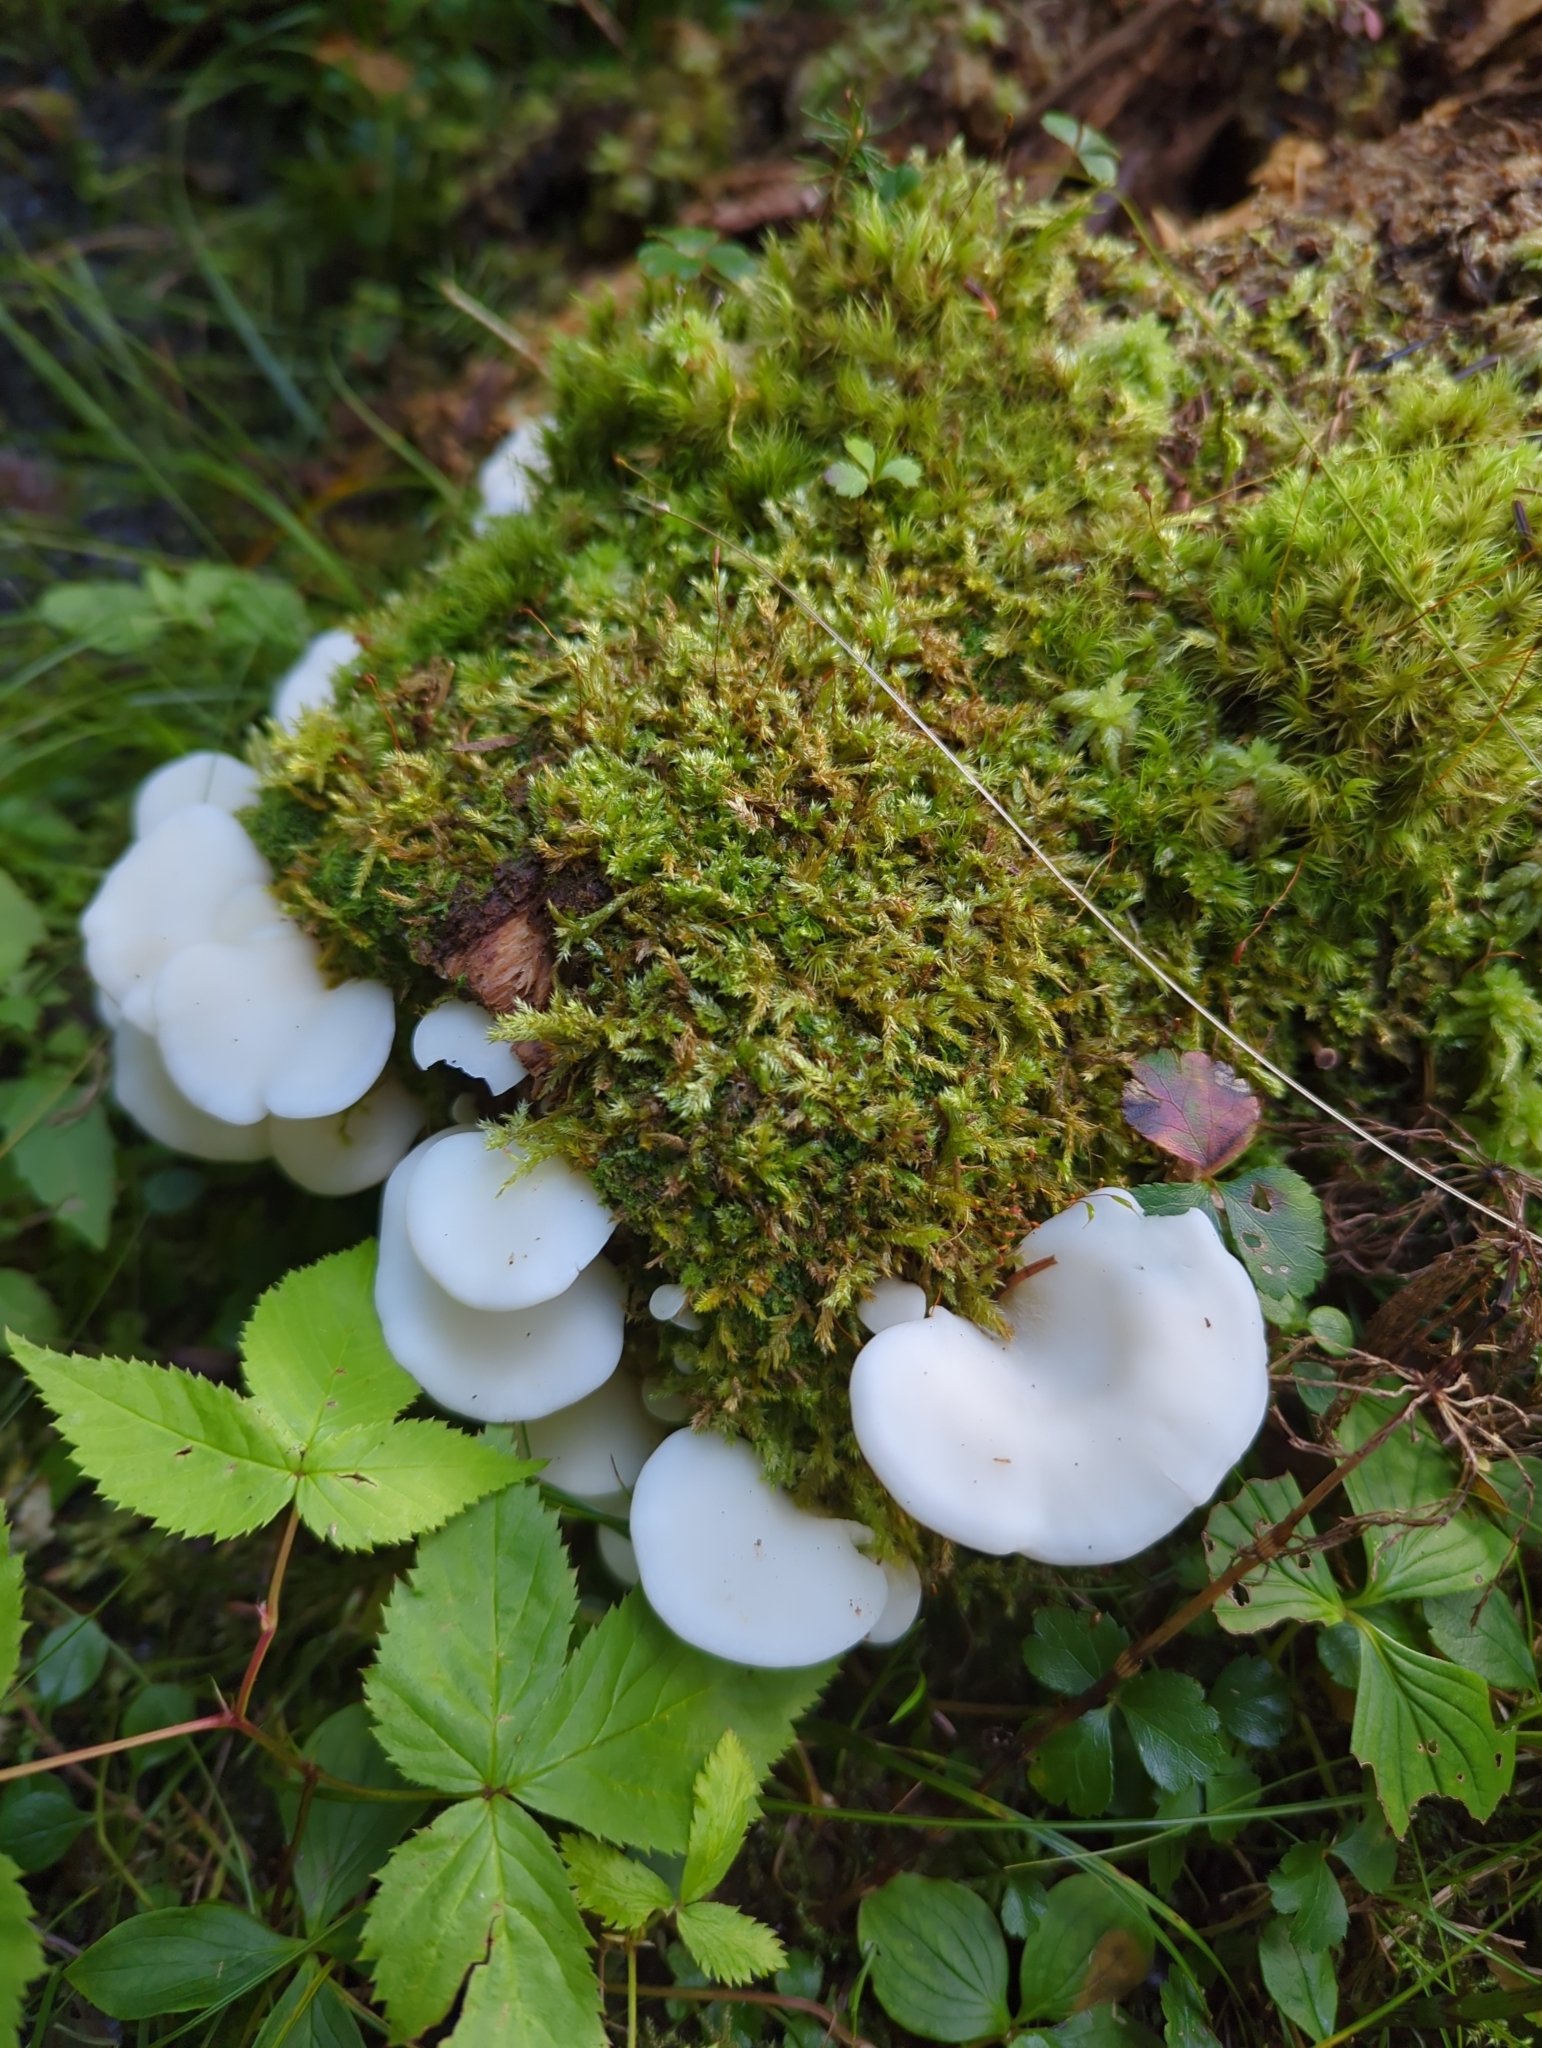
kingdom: Fungi
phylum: Basidiomycota
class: Agaricomycetes
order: Agaricales
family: Marasmiaceae
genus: Pleurocybella
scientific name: Pleurocybella porrigens
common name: Angel's wings
